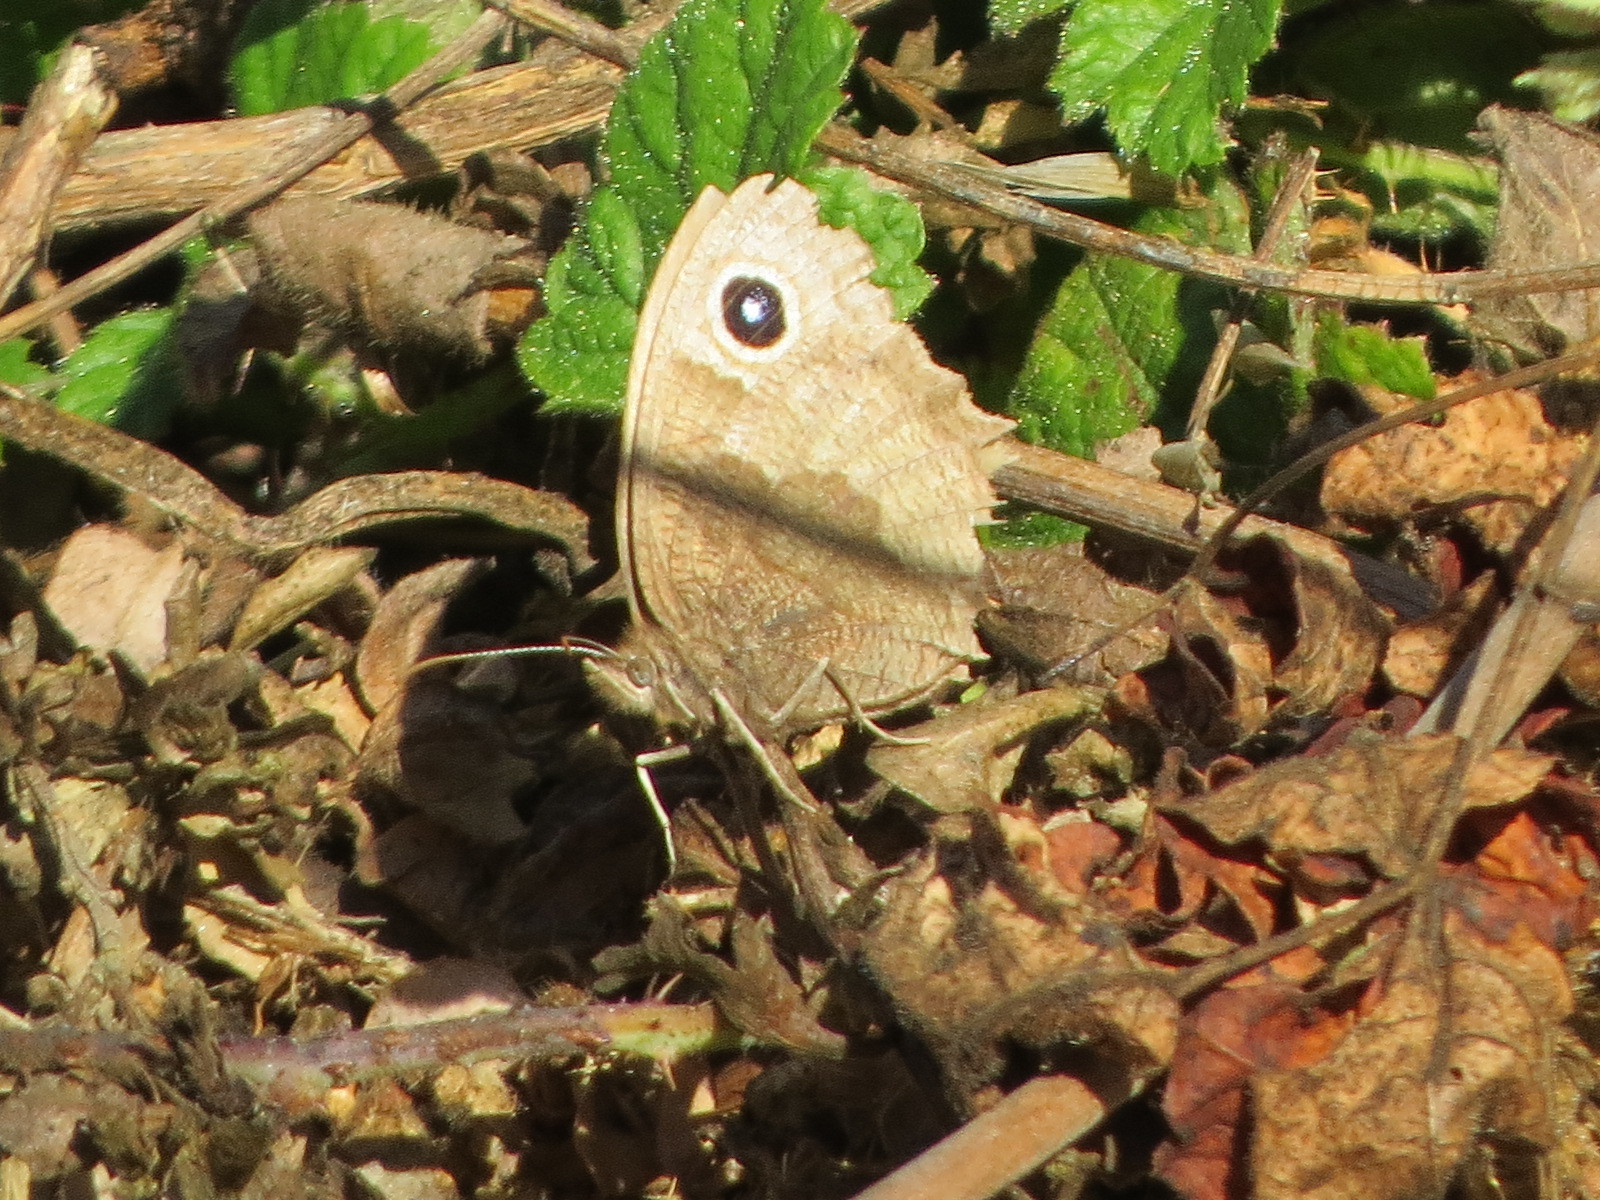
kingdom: Animalia
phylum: Arthropoda
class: Insecta
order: Lepidoptera
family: Nymphalidae
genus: Cercyonis
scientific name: Cercyonis pegala
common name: Common wood-nymph
